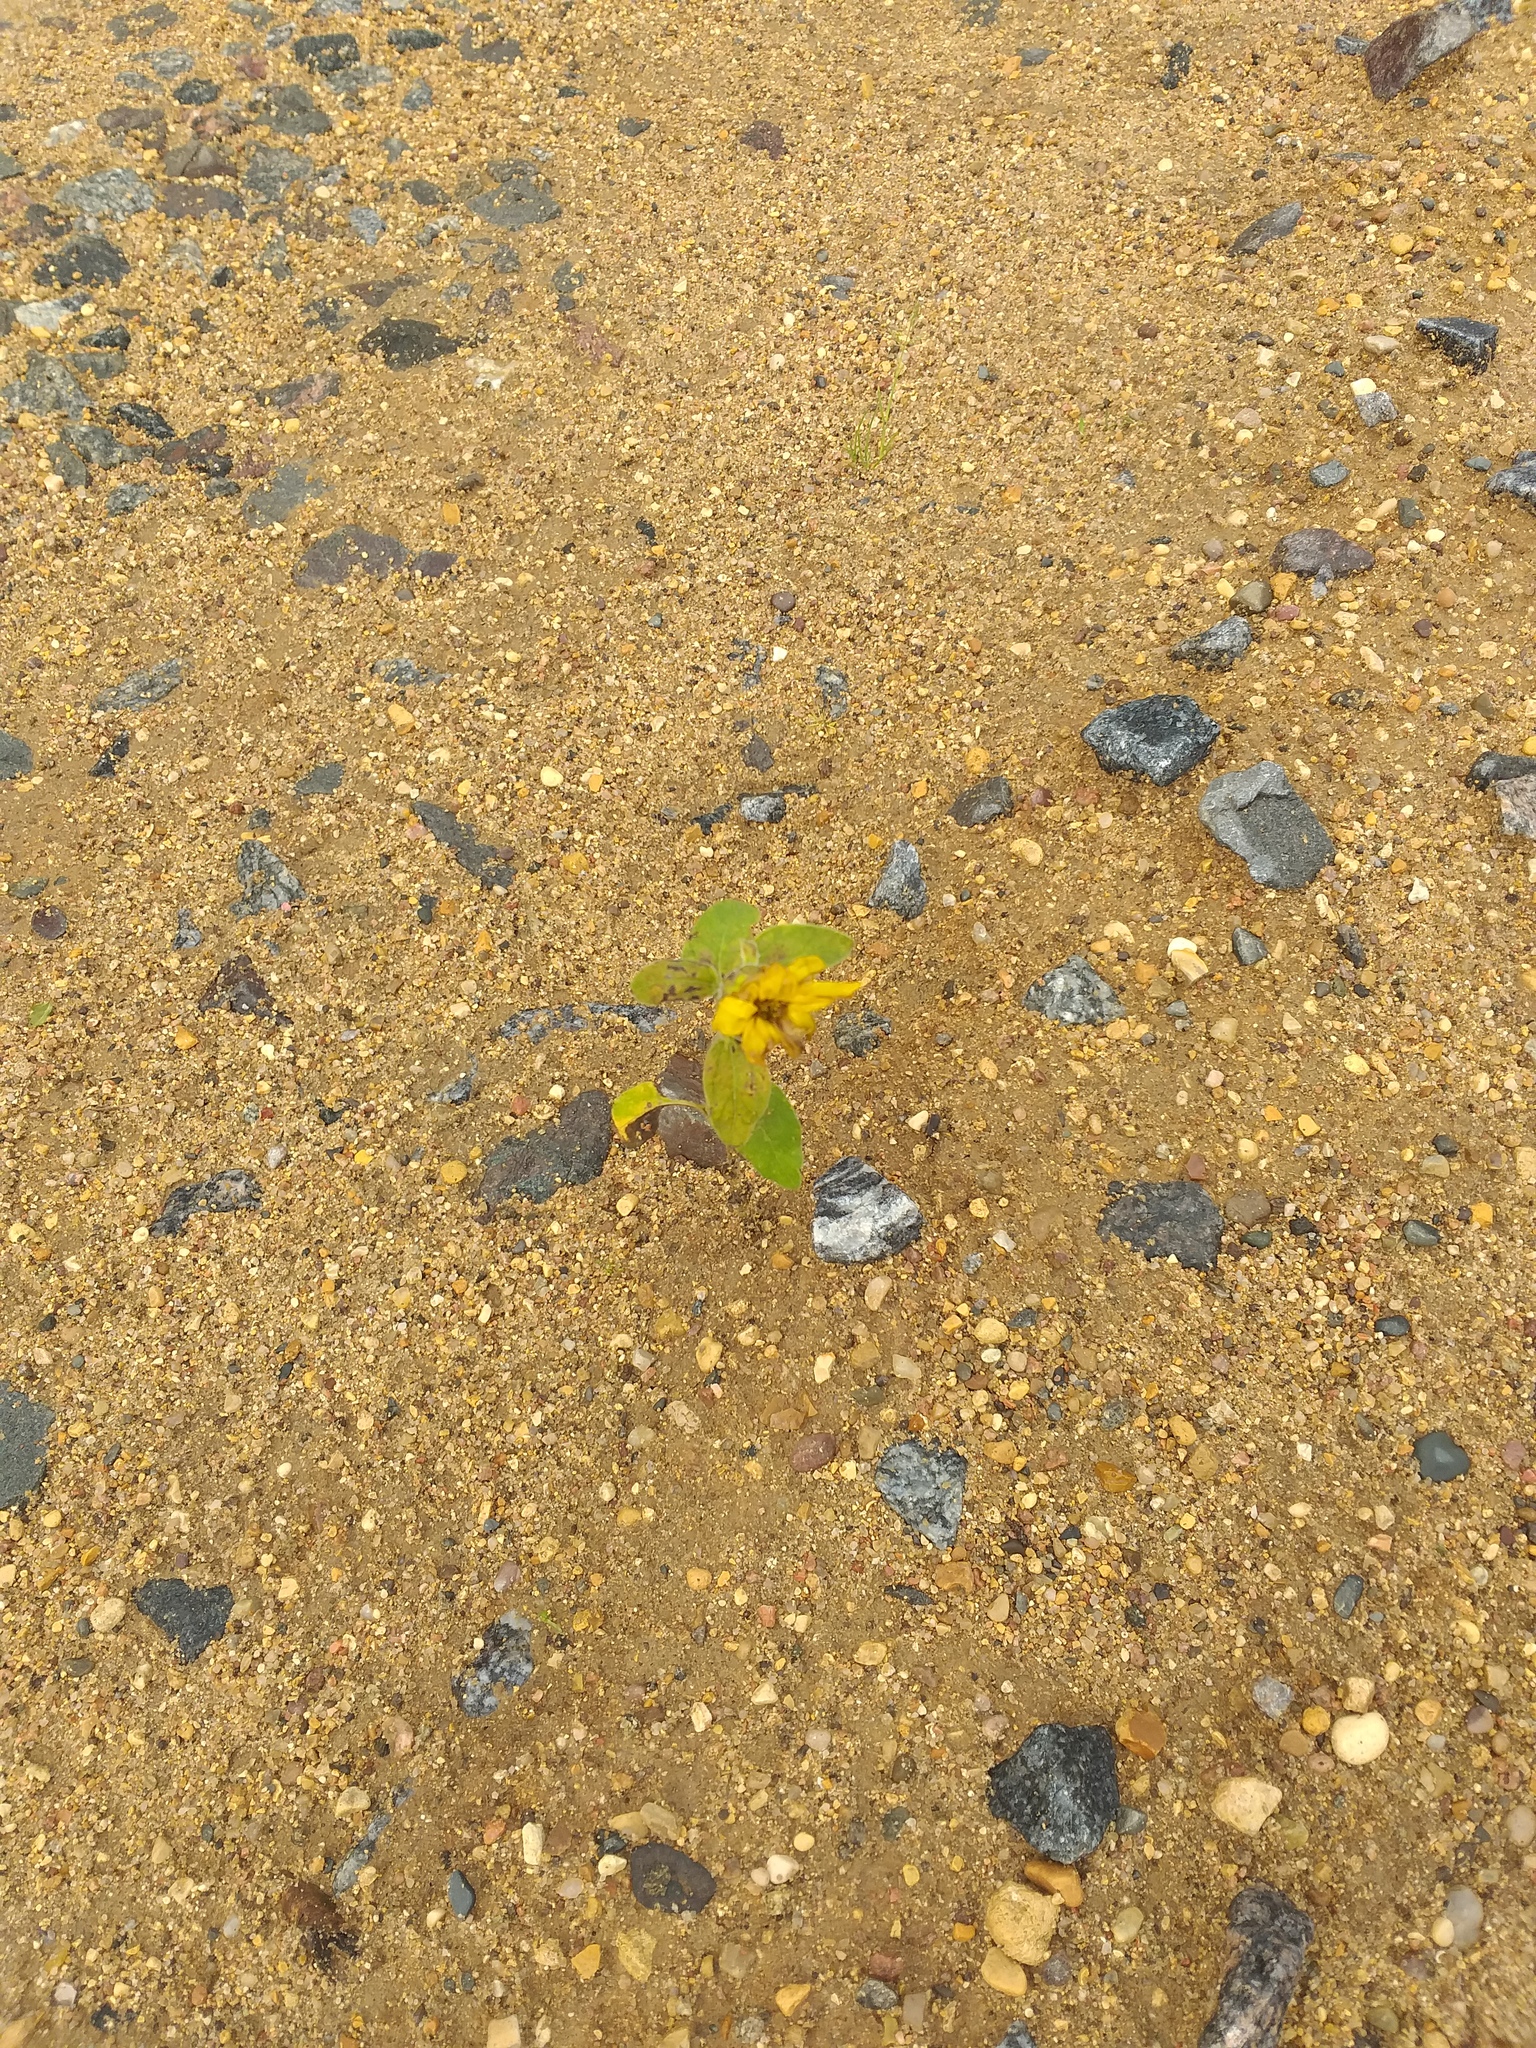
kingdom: Plantae
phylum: Tracheophyta
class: Magnoliopsida
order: Asterales
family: Asteraceae
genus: Helianthus
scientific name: Helianthus annuus
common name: Sunflower
